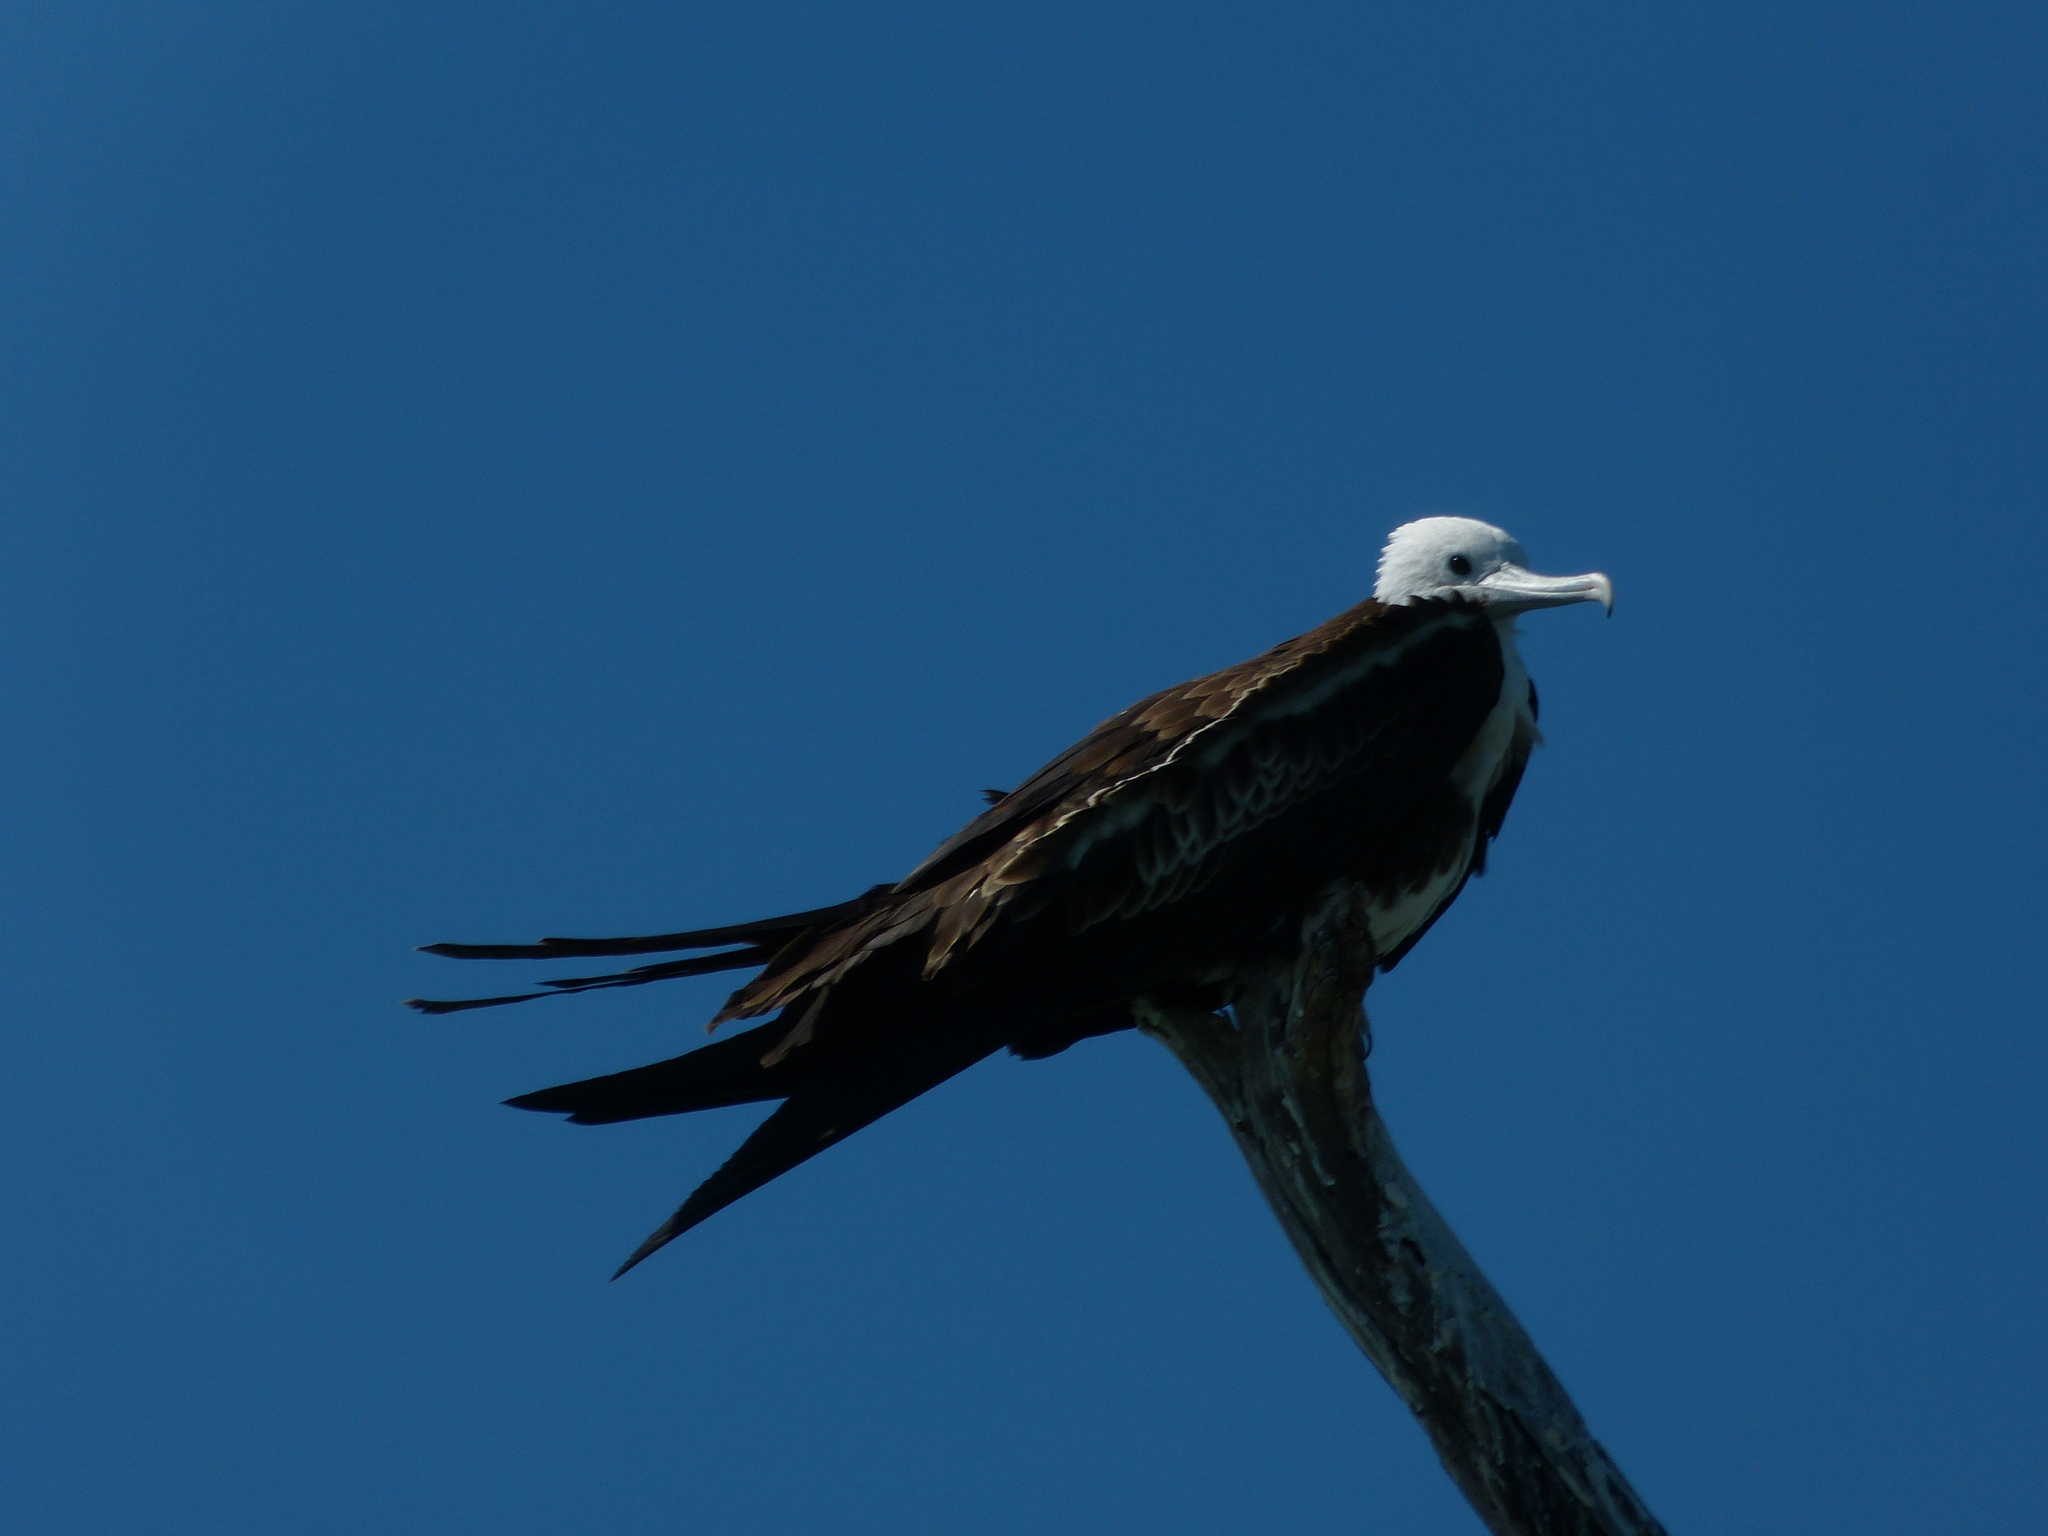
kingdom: Animalia
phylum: Chordata
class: Aves
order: Suliformes
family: Fregatidae
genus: Fregata
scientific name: Fregata magnificens
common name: Magnificent frigatebird
